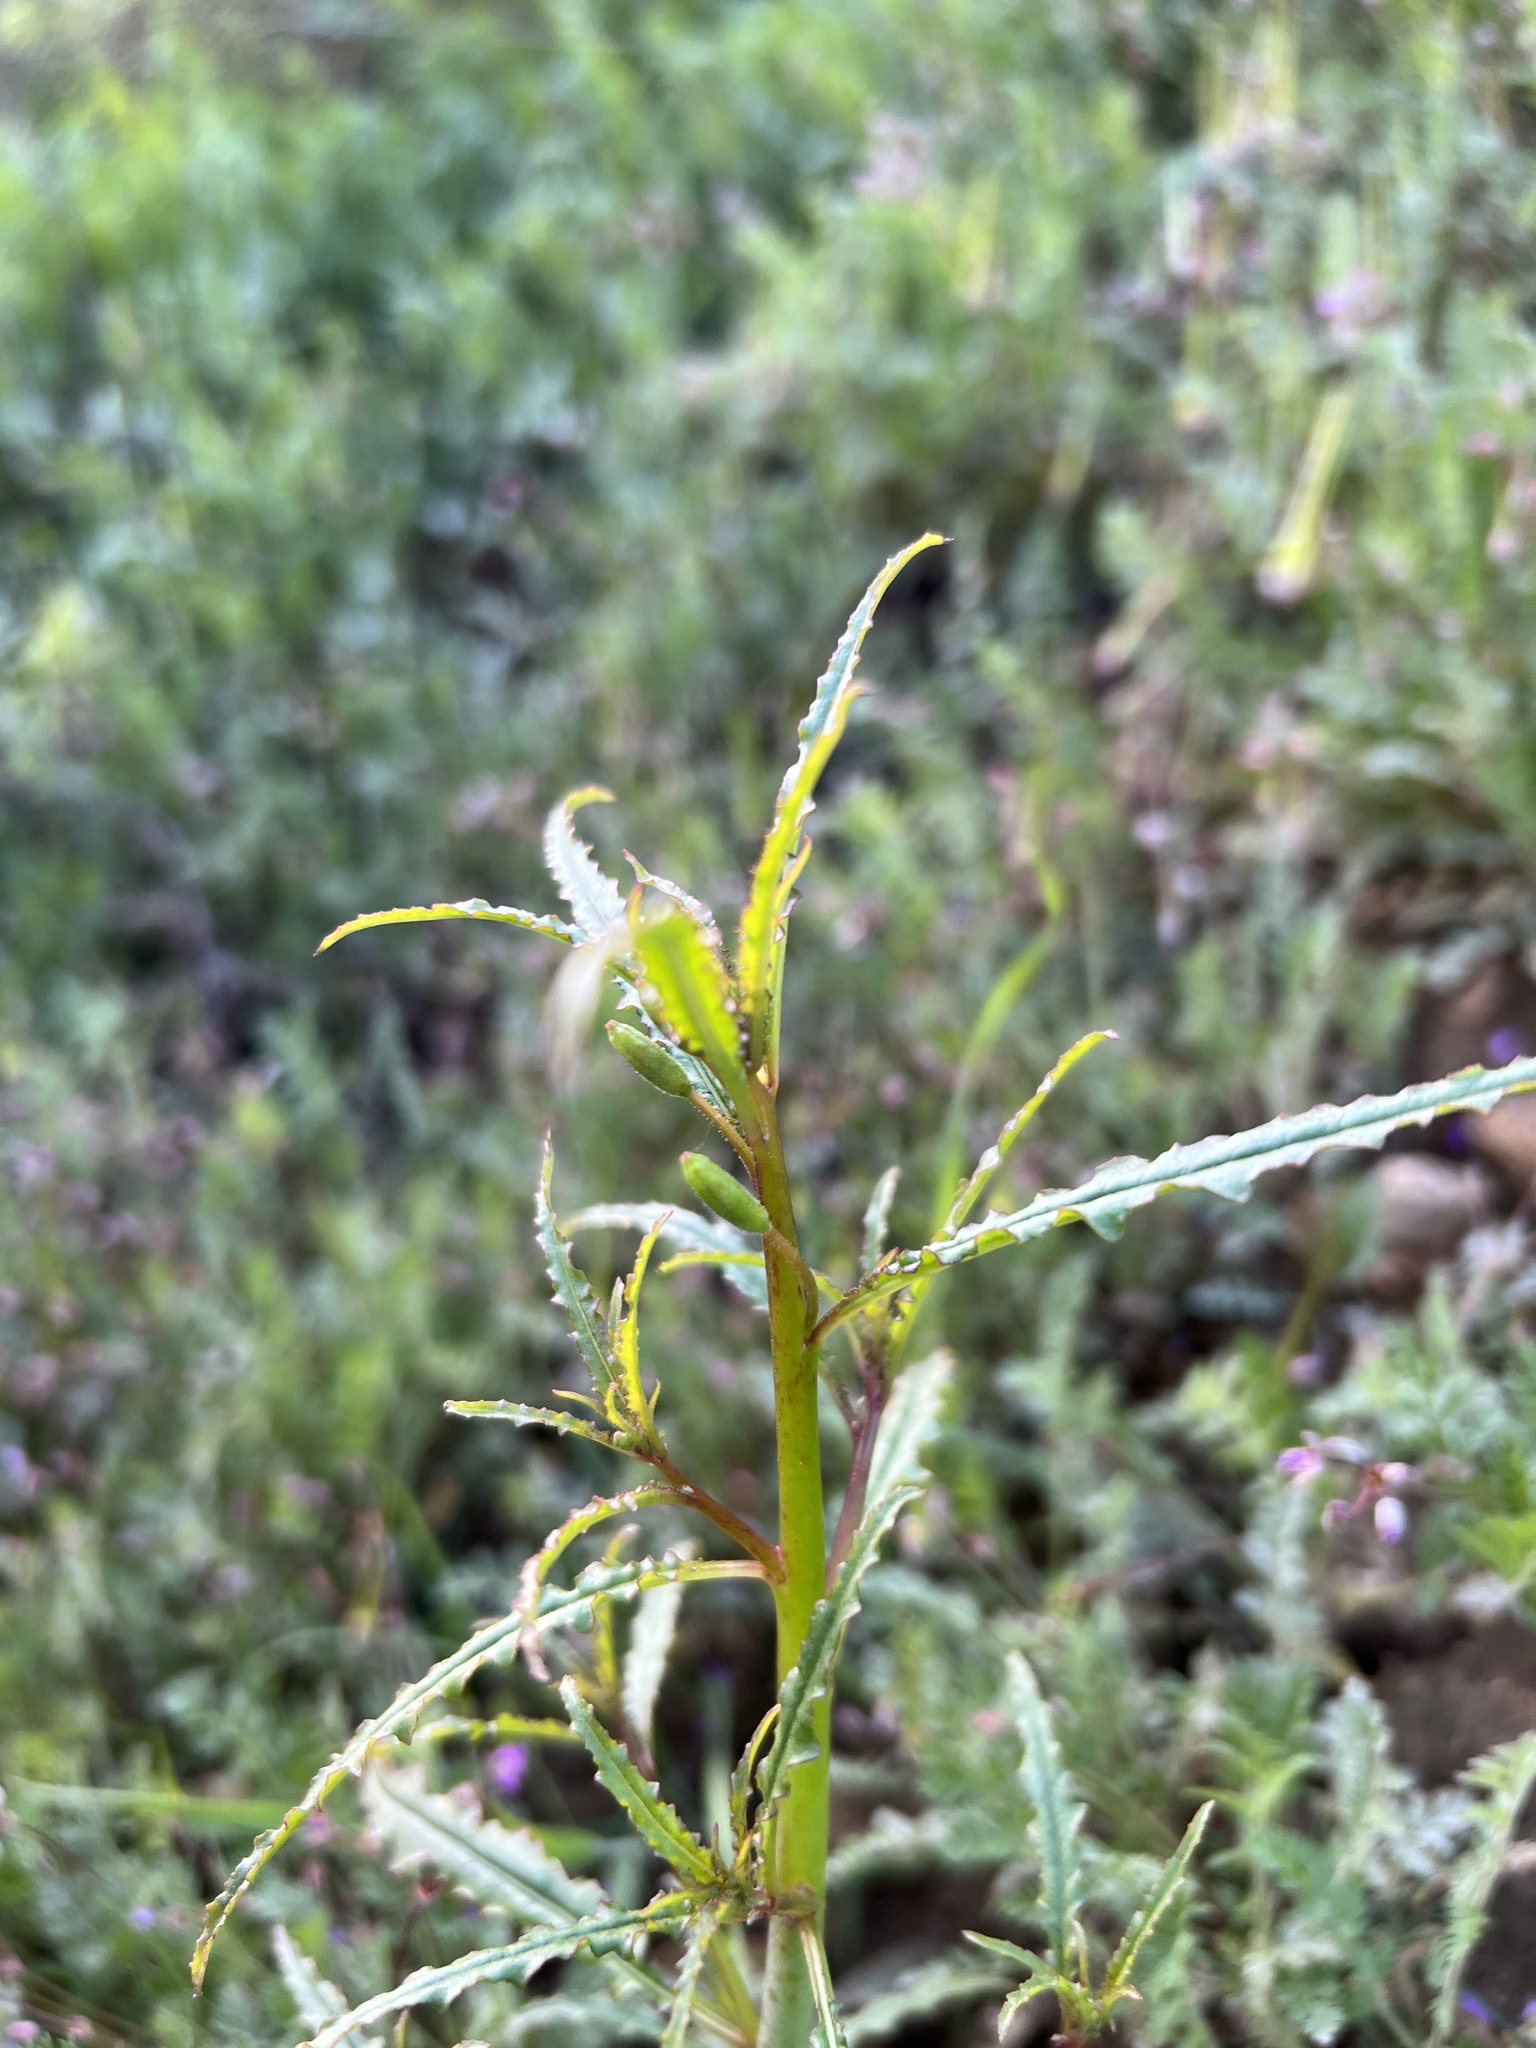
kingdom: Plantae
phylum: Tracheophyta
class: Magnoliopsida
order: Myrtales
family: Onagraceae
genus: Eulobus
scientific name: Eulobus californicus
